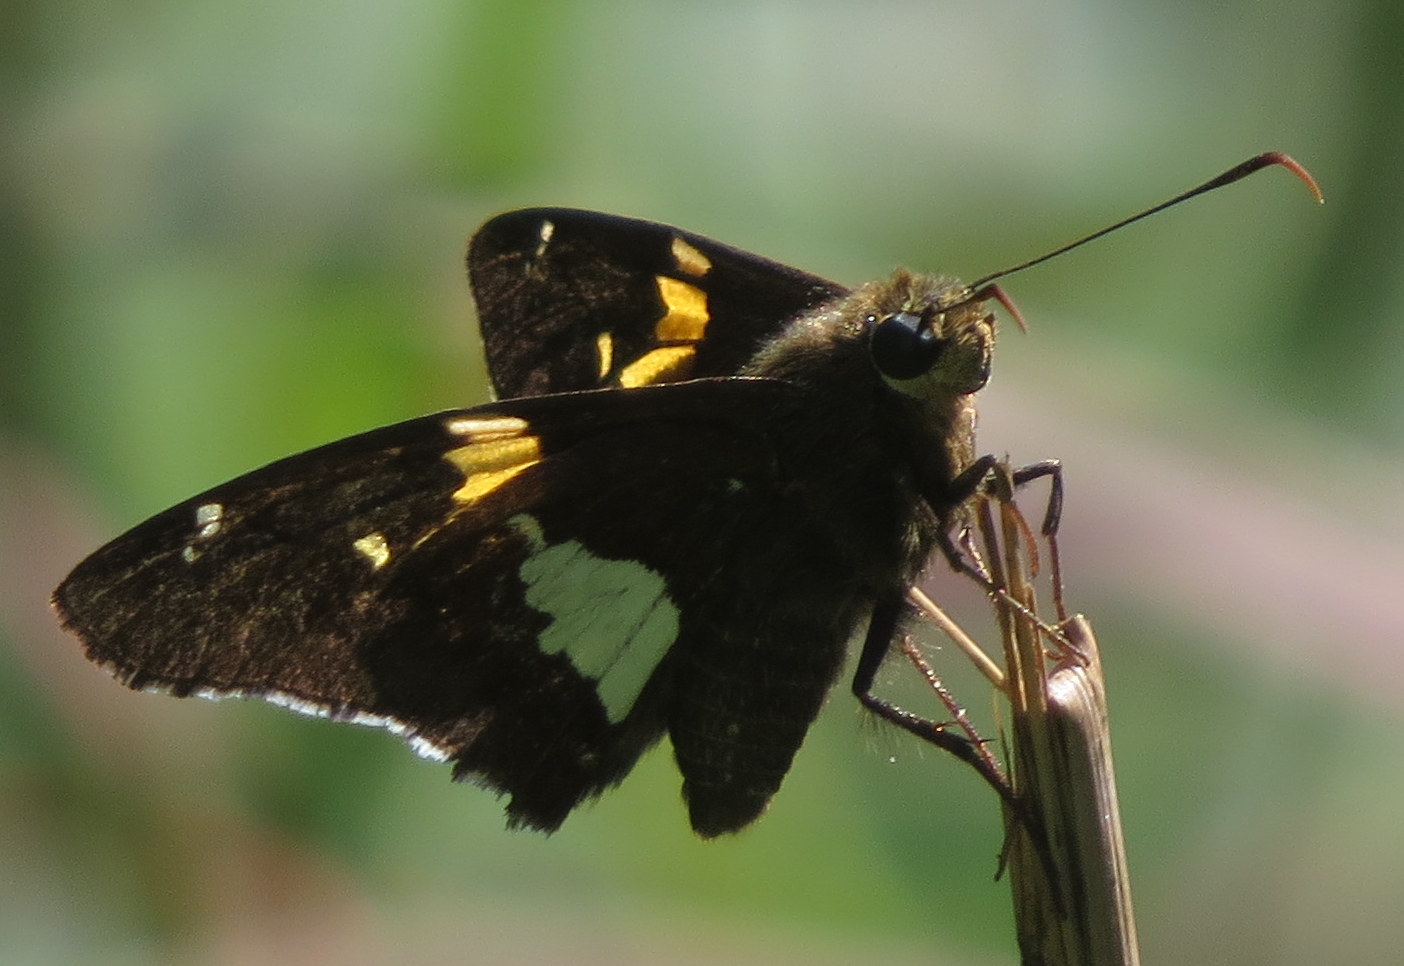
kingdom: Animalia
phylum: Arthropoda
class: Insecta
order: Lepidoptera
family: Hesperiidae
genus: Epargyreus
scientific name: Epargyreus clarus
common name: Silver-spotted skipper
